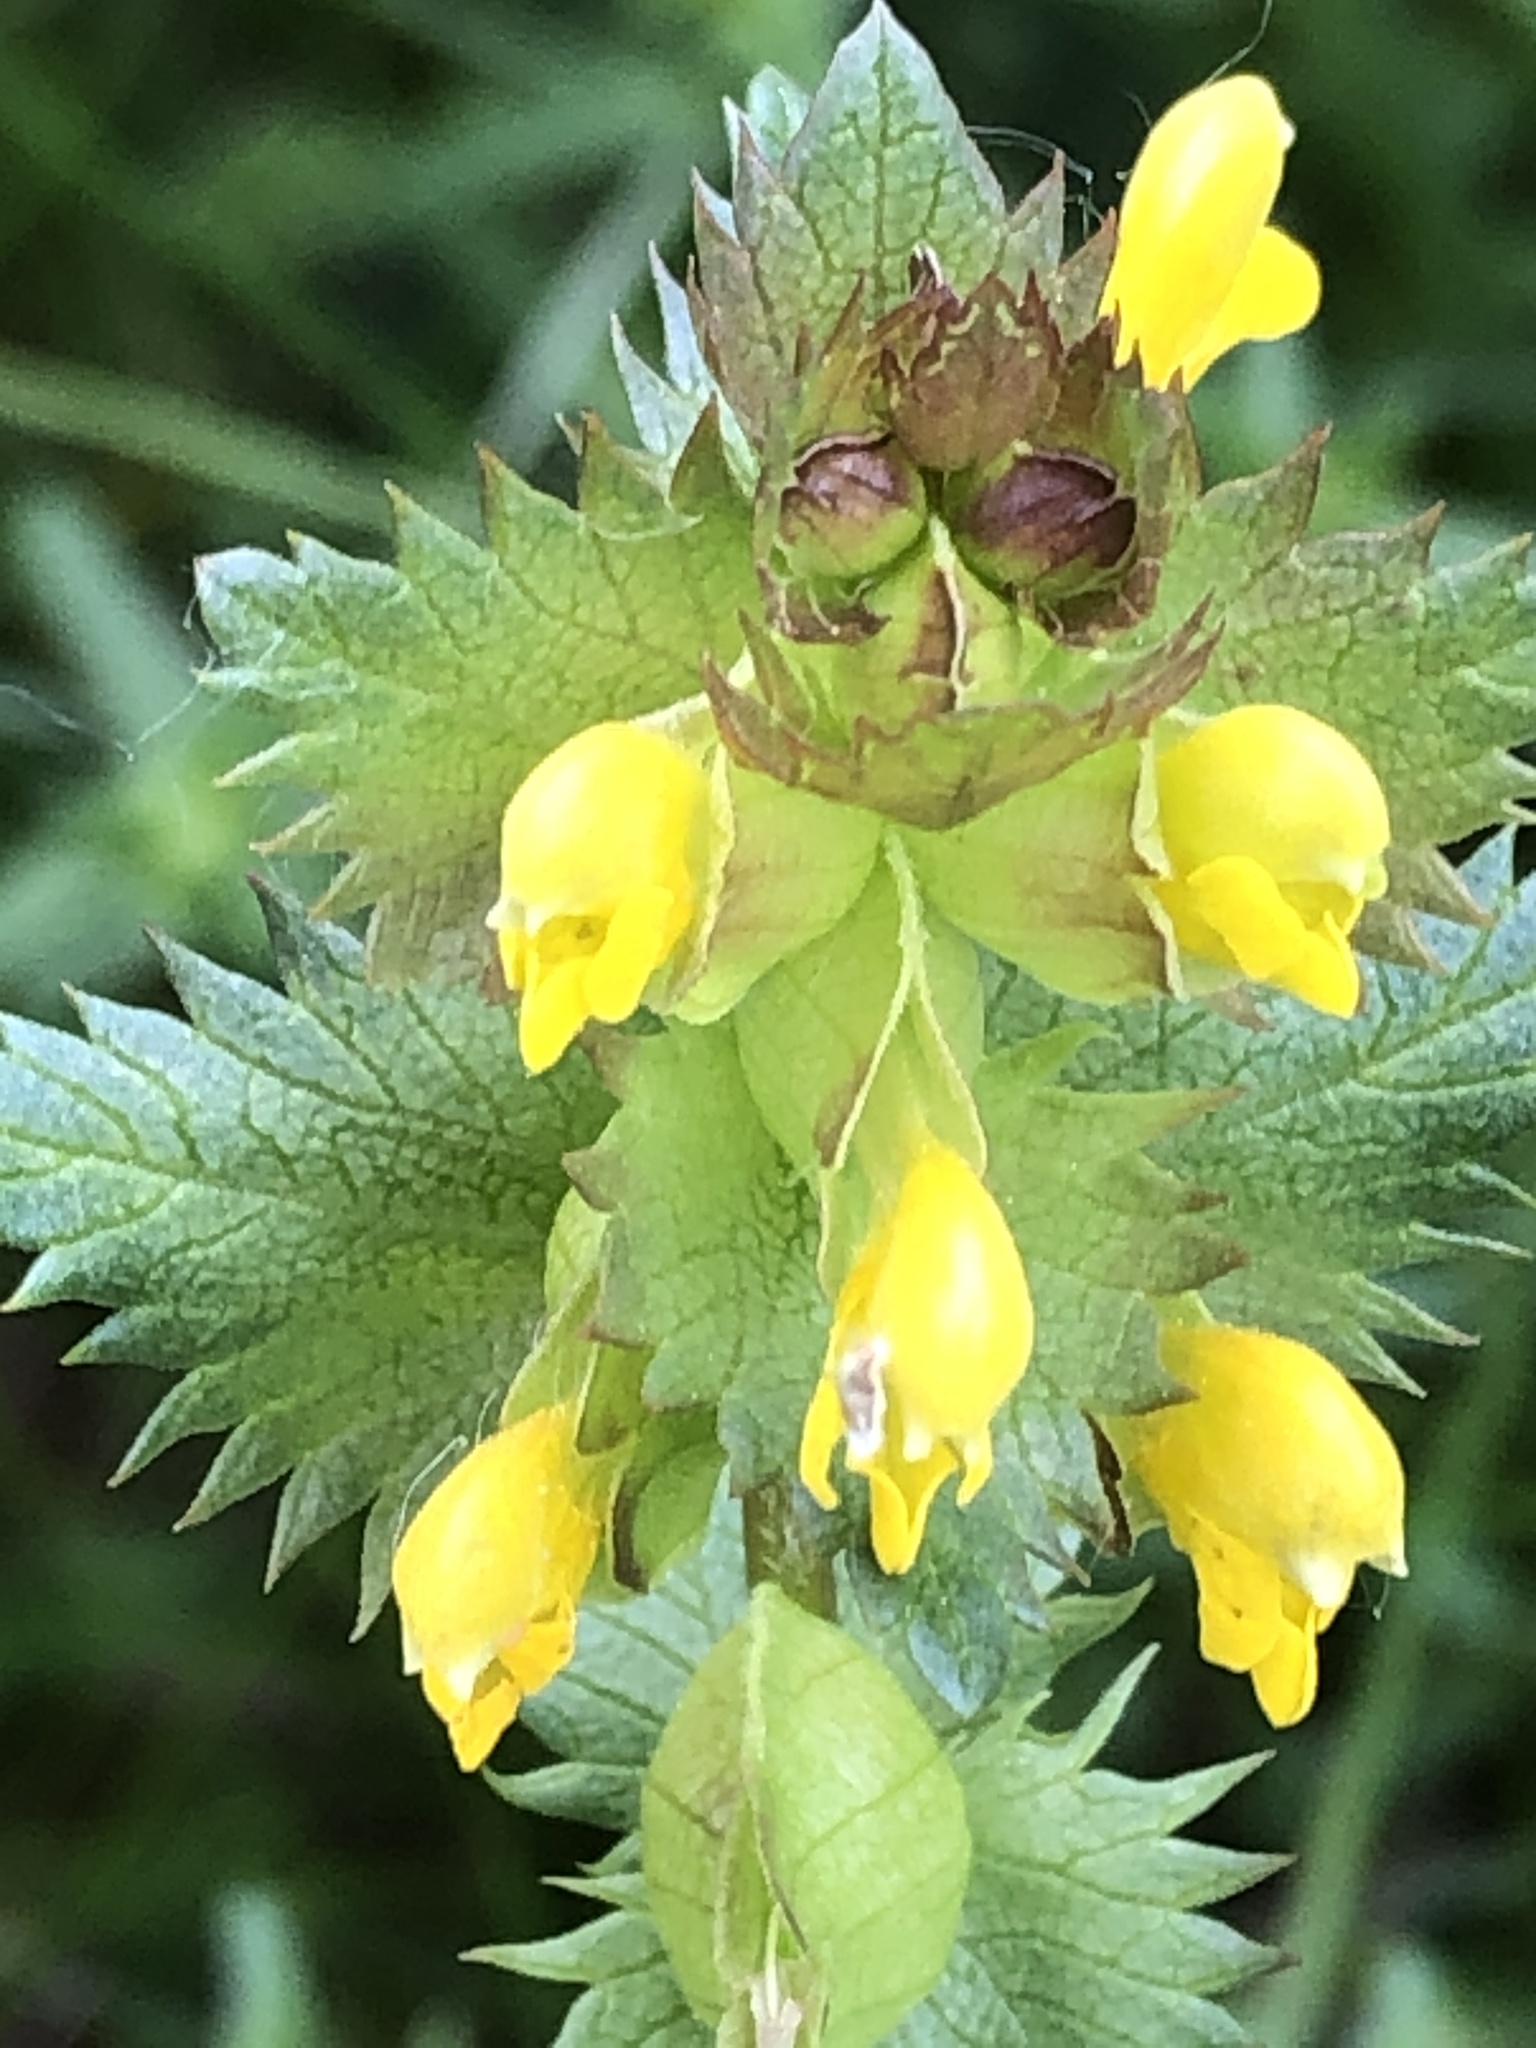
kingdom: Plantae
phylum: Tracheophyta
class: Magnoliopsida
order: Lamiales
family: Orobanchaceae
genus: Rhinanthus
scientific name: Rhinanthus minor
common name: Yellow-rattle
